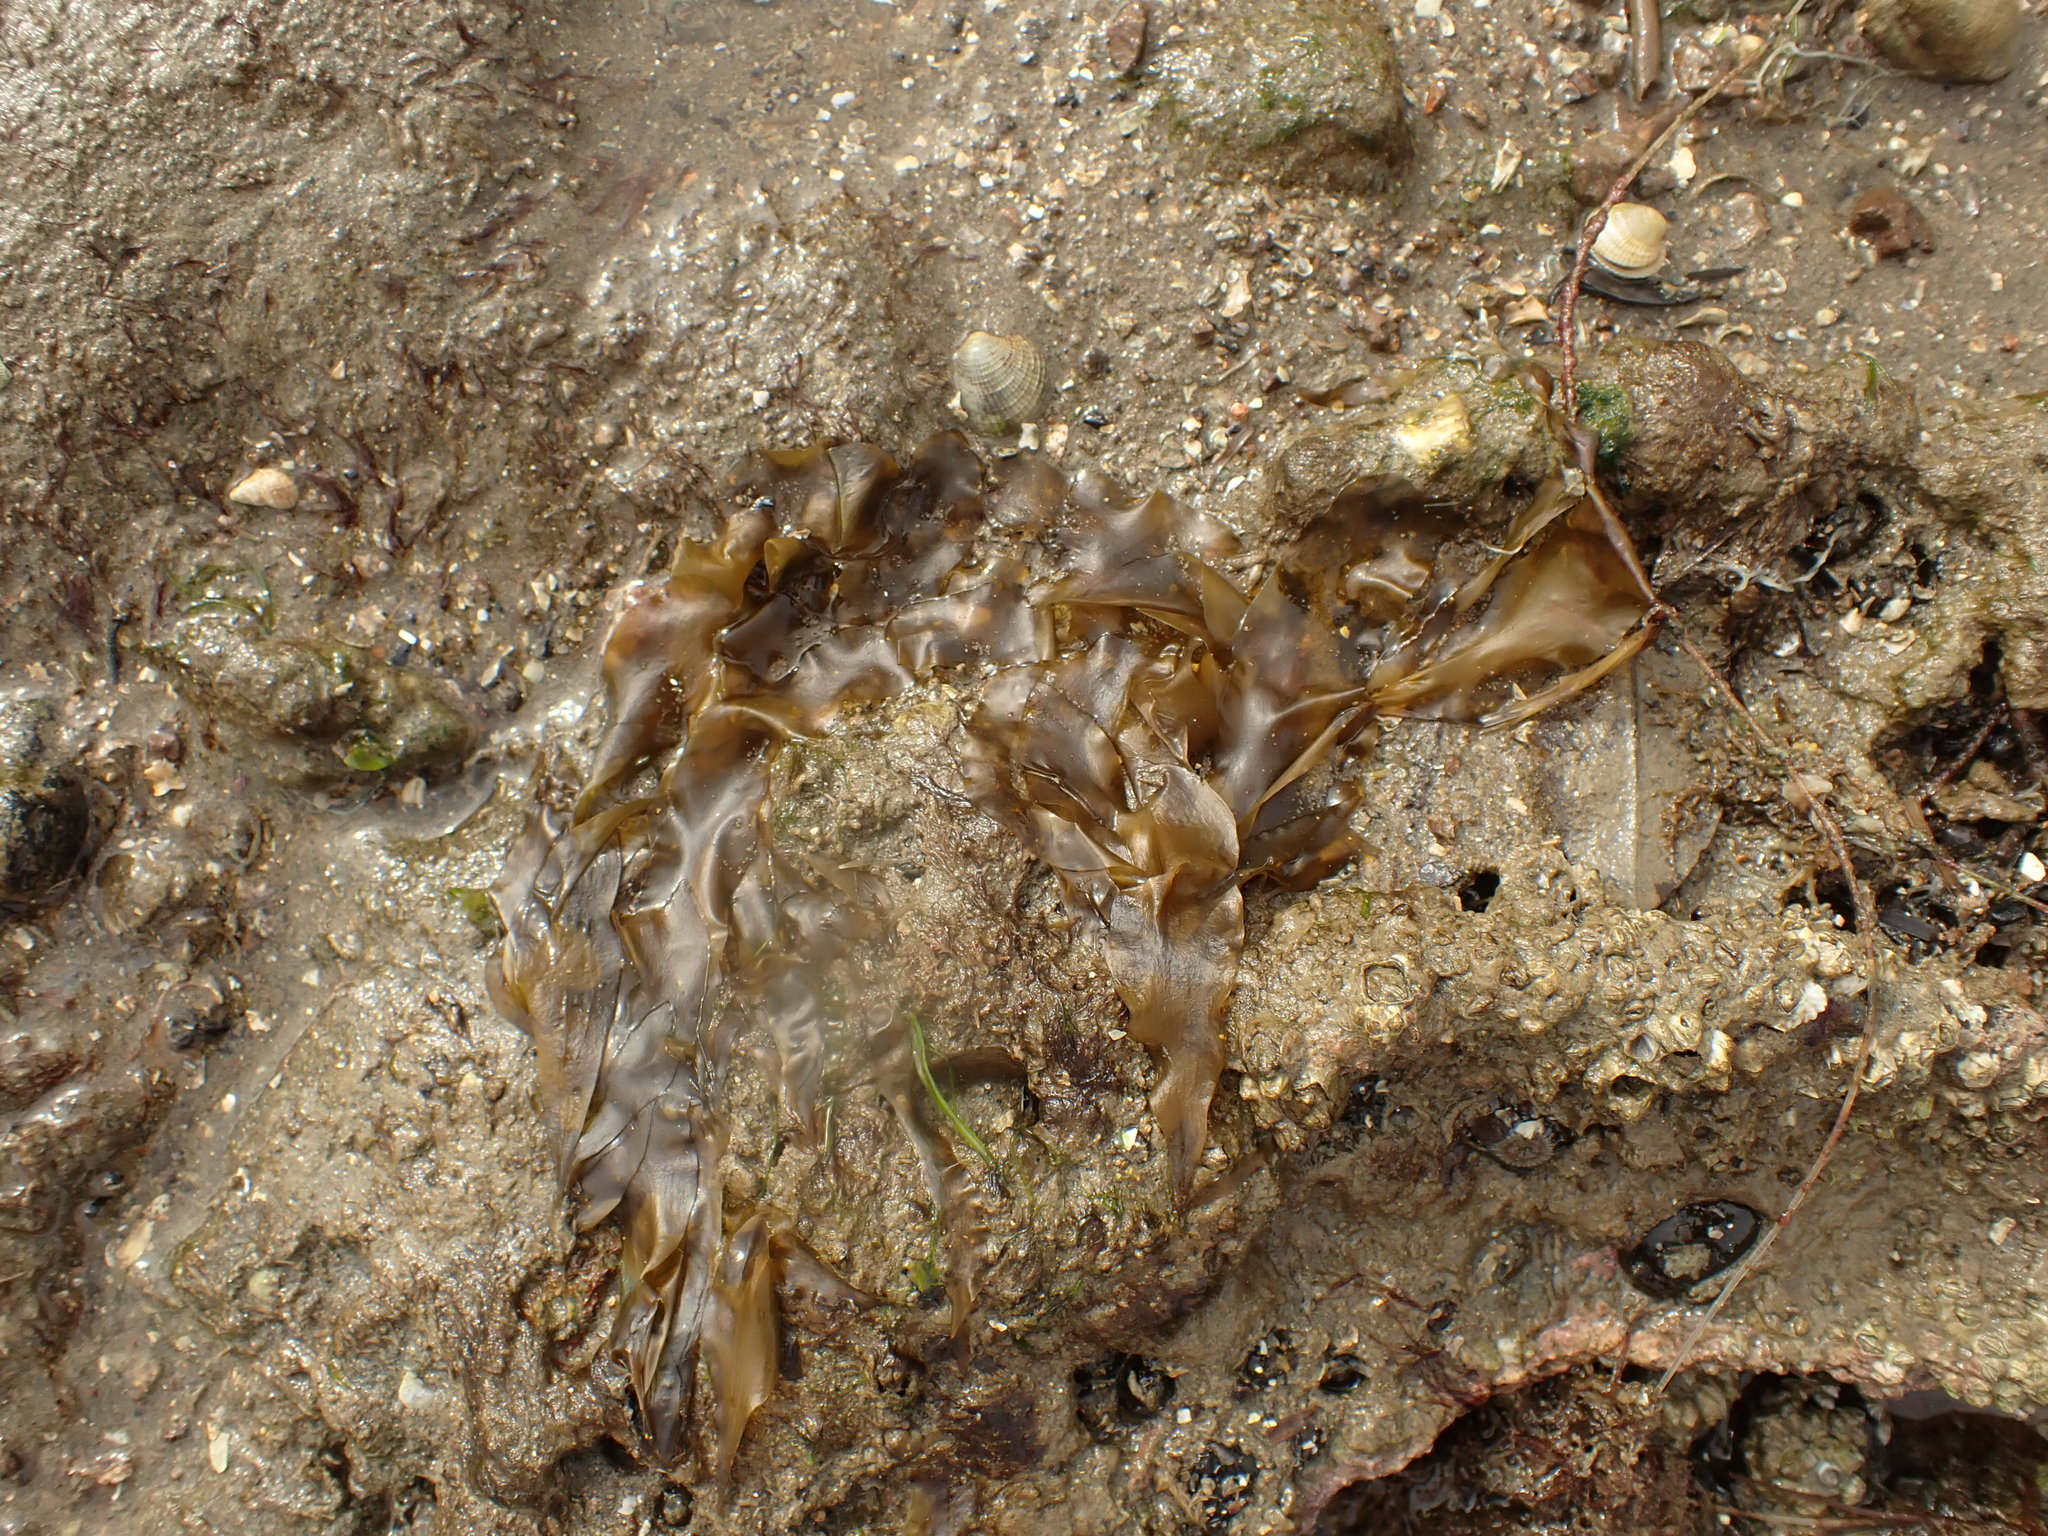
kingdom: Chromista
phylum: Ochrophyta
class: Phaeophyceae
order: Scytosiphonales
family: Scytosiphonaceae
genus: Petalonia
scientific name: Petalonia binghamiae
